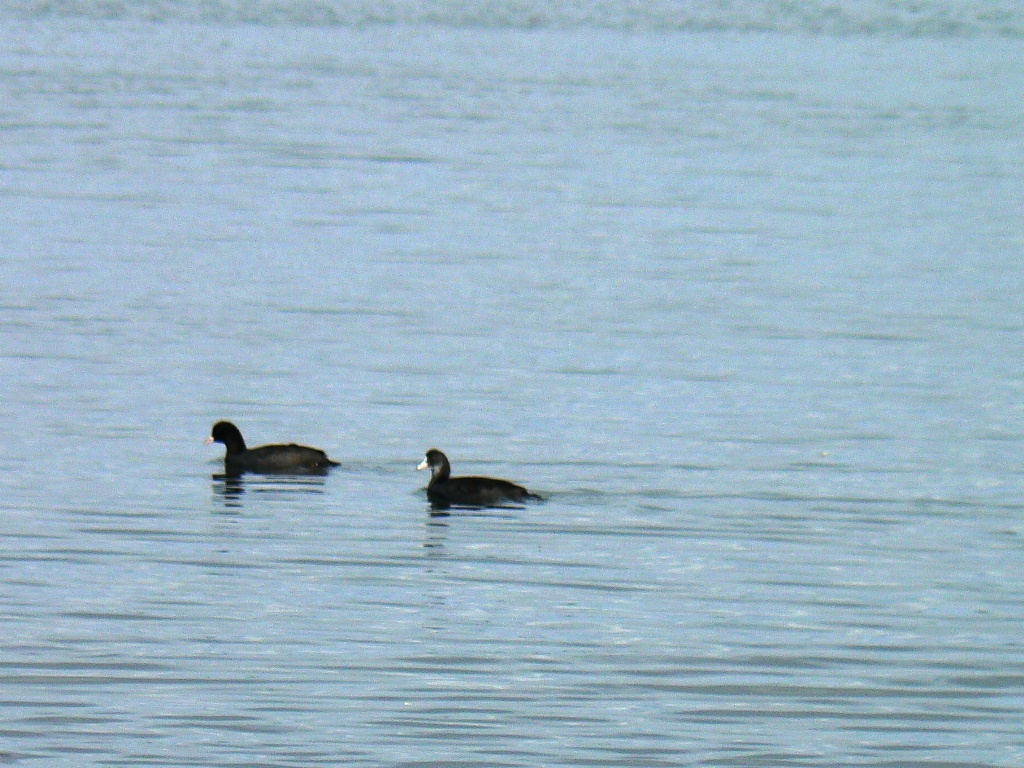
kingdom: Animalia
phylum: Chordata
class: Aves
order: Gruiformes
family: Rallidae
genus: Fulica
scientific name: Fulica atra
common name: Eurasian coot
